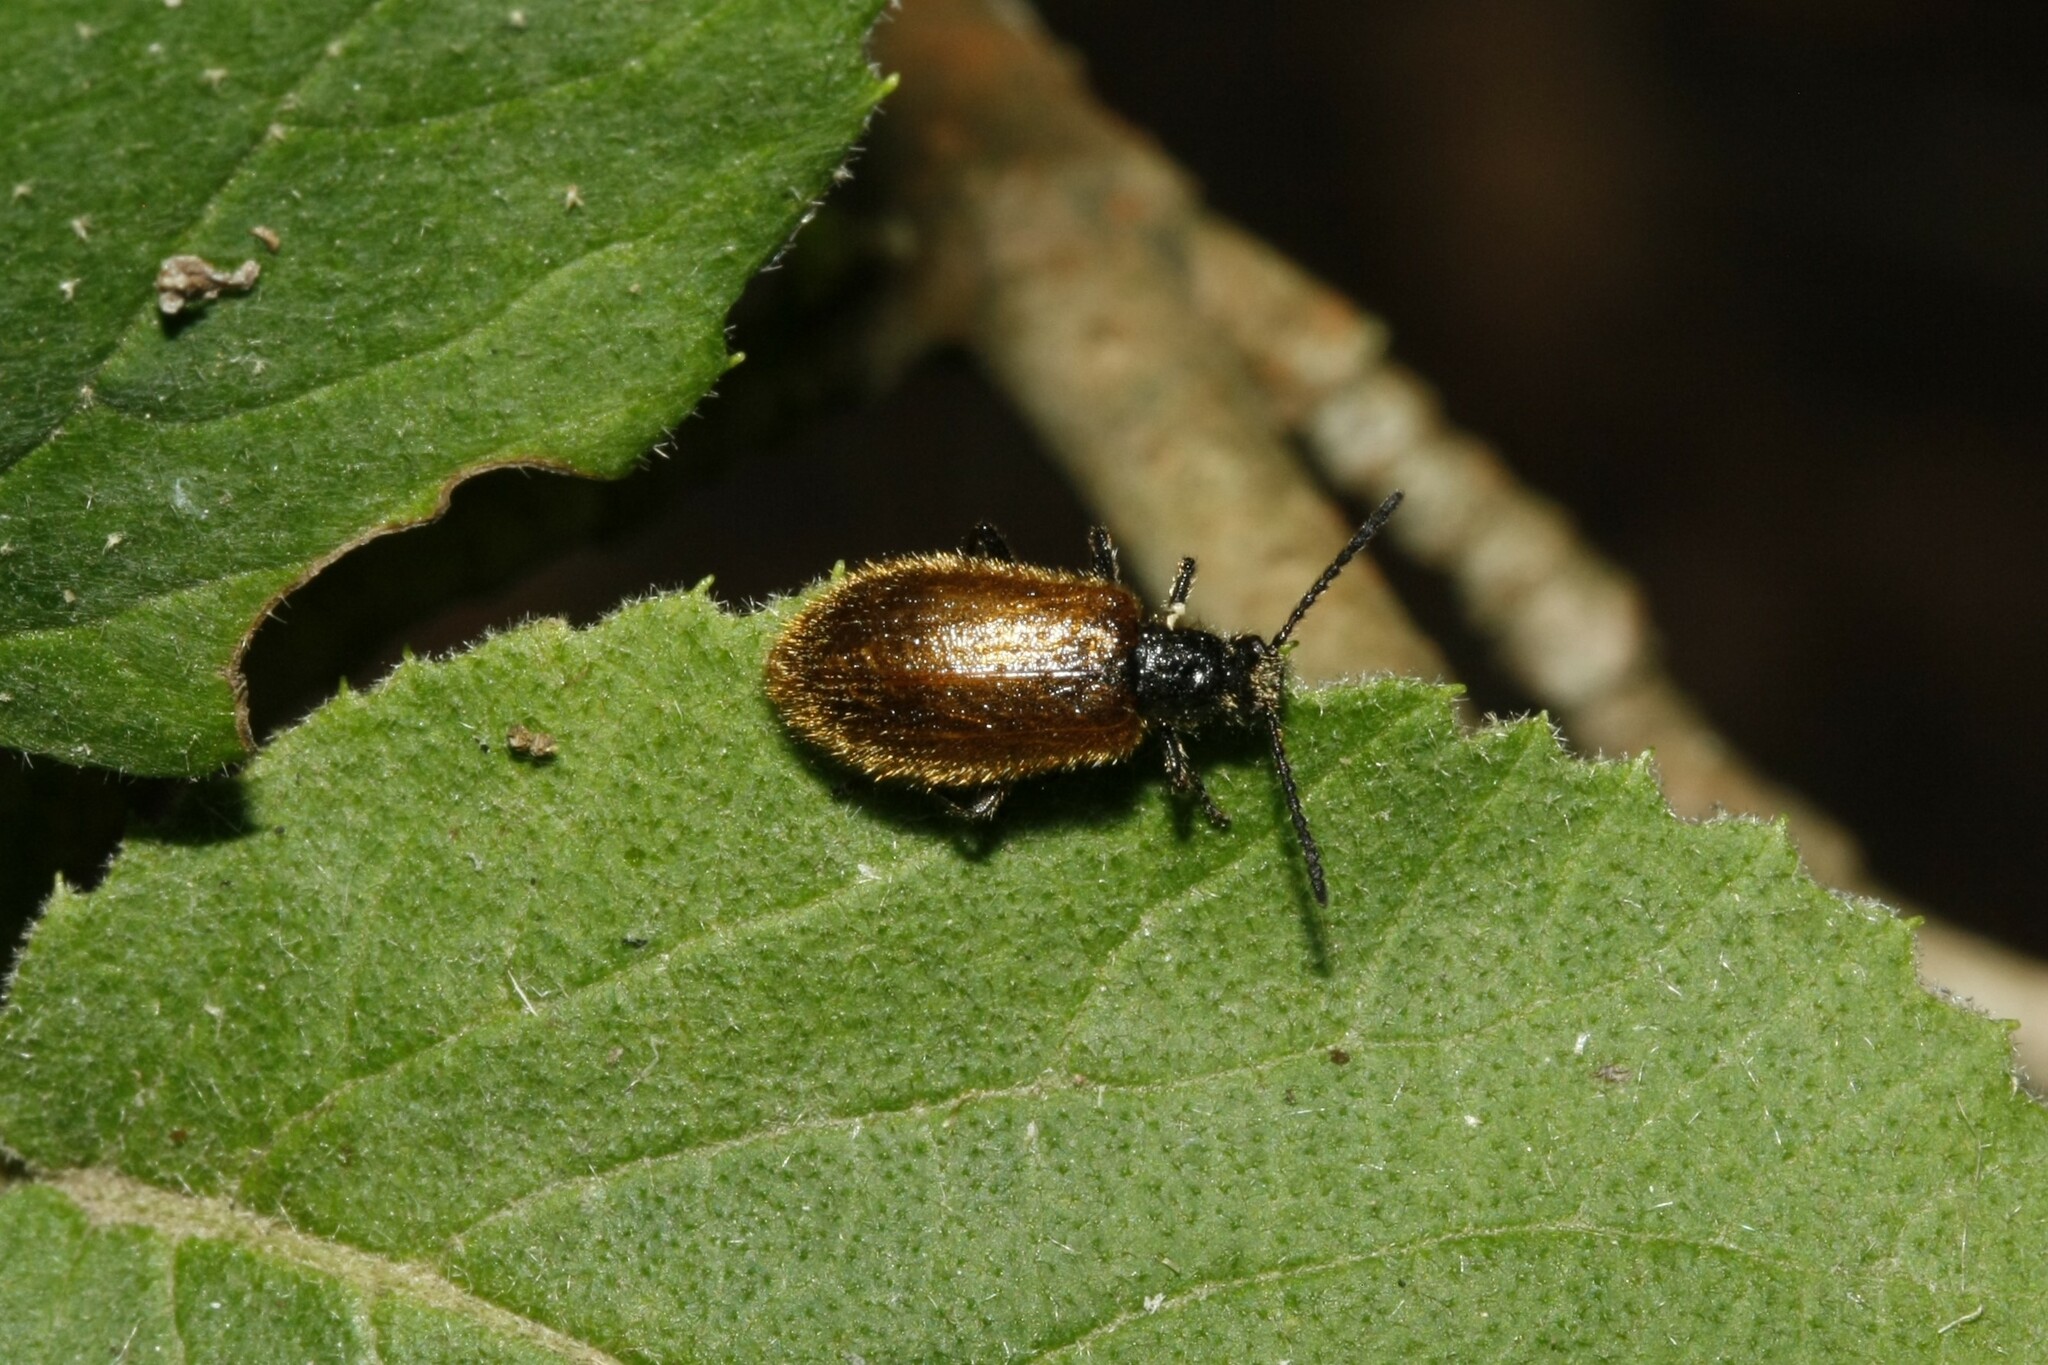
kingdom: Animalia
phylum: Arthropoda
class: Insecta
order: Coleoptera
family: Tenebrionidae
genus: Lagria
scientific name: Lagria hirta
